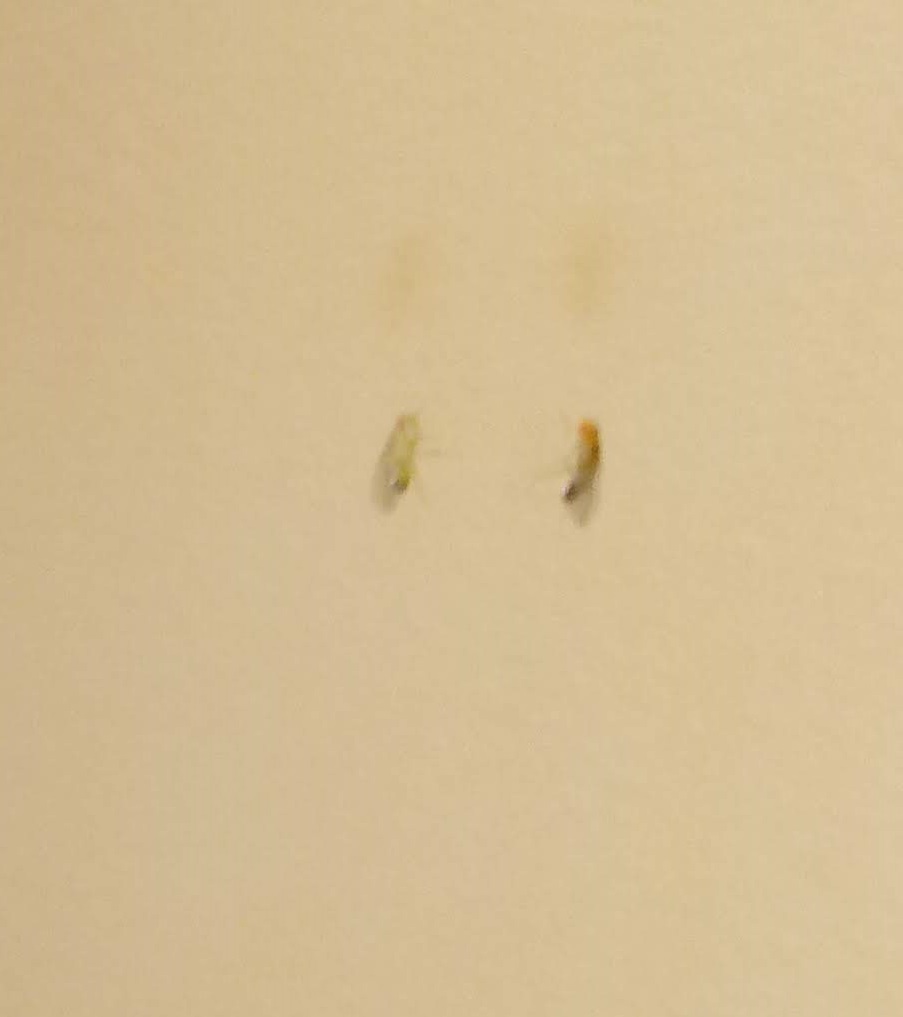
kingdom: Animalia
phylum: Arthropoda
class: Insecta
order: Diptera
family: Drosophilidae
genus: Drosophila
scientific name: Drosophila
